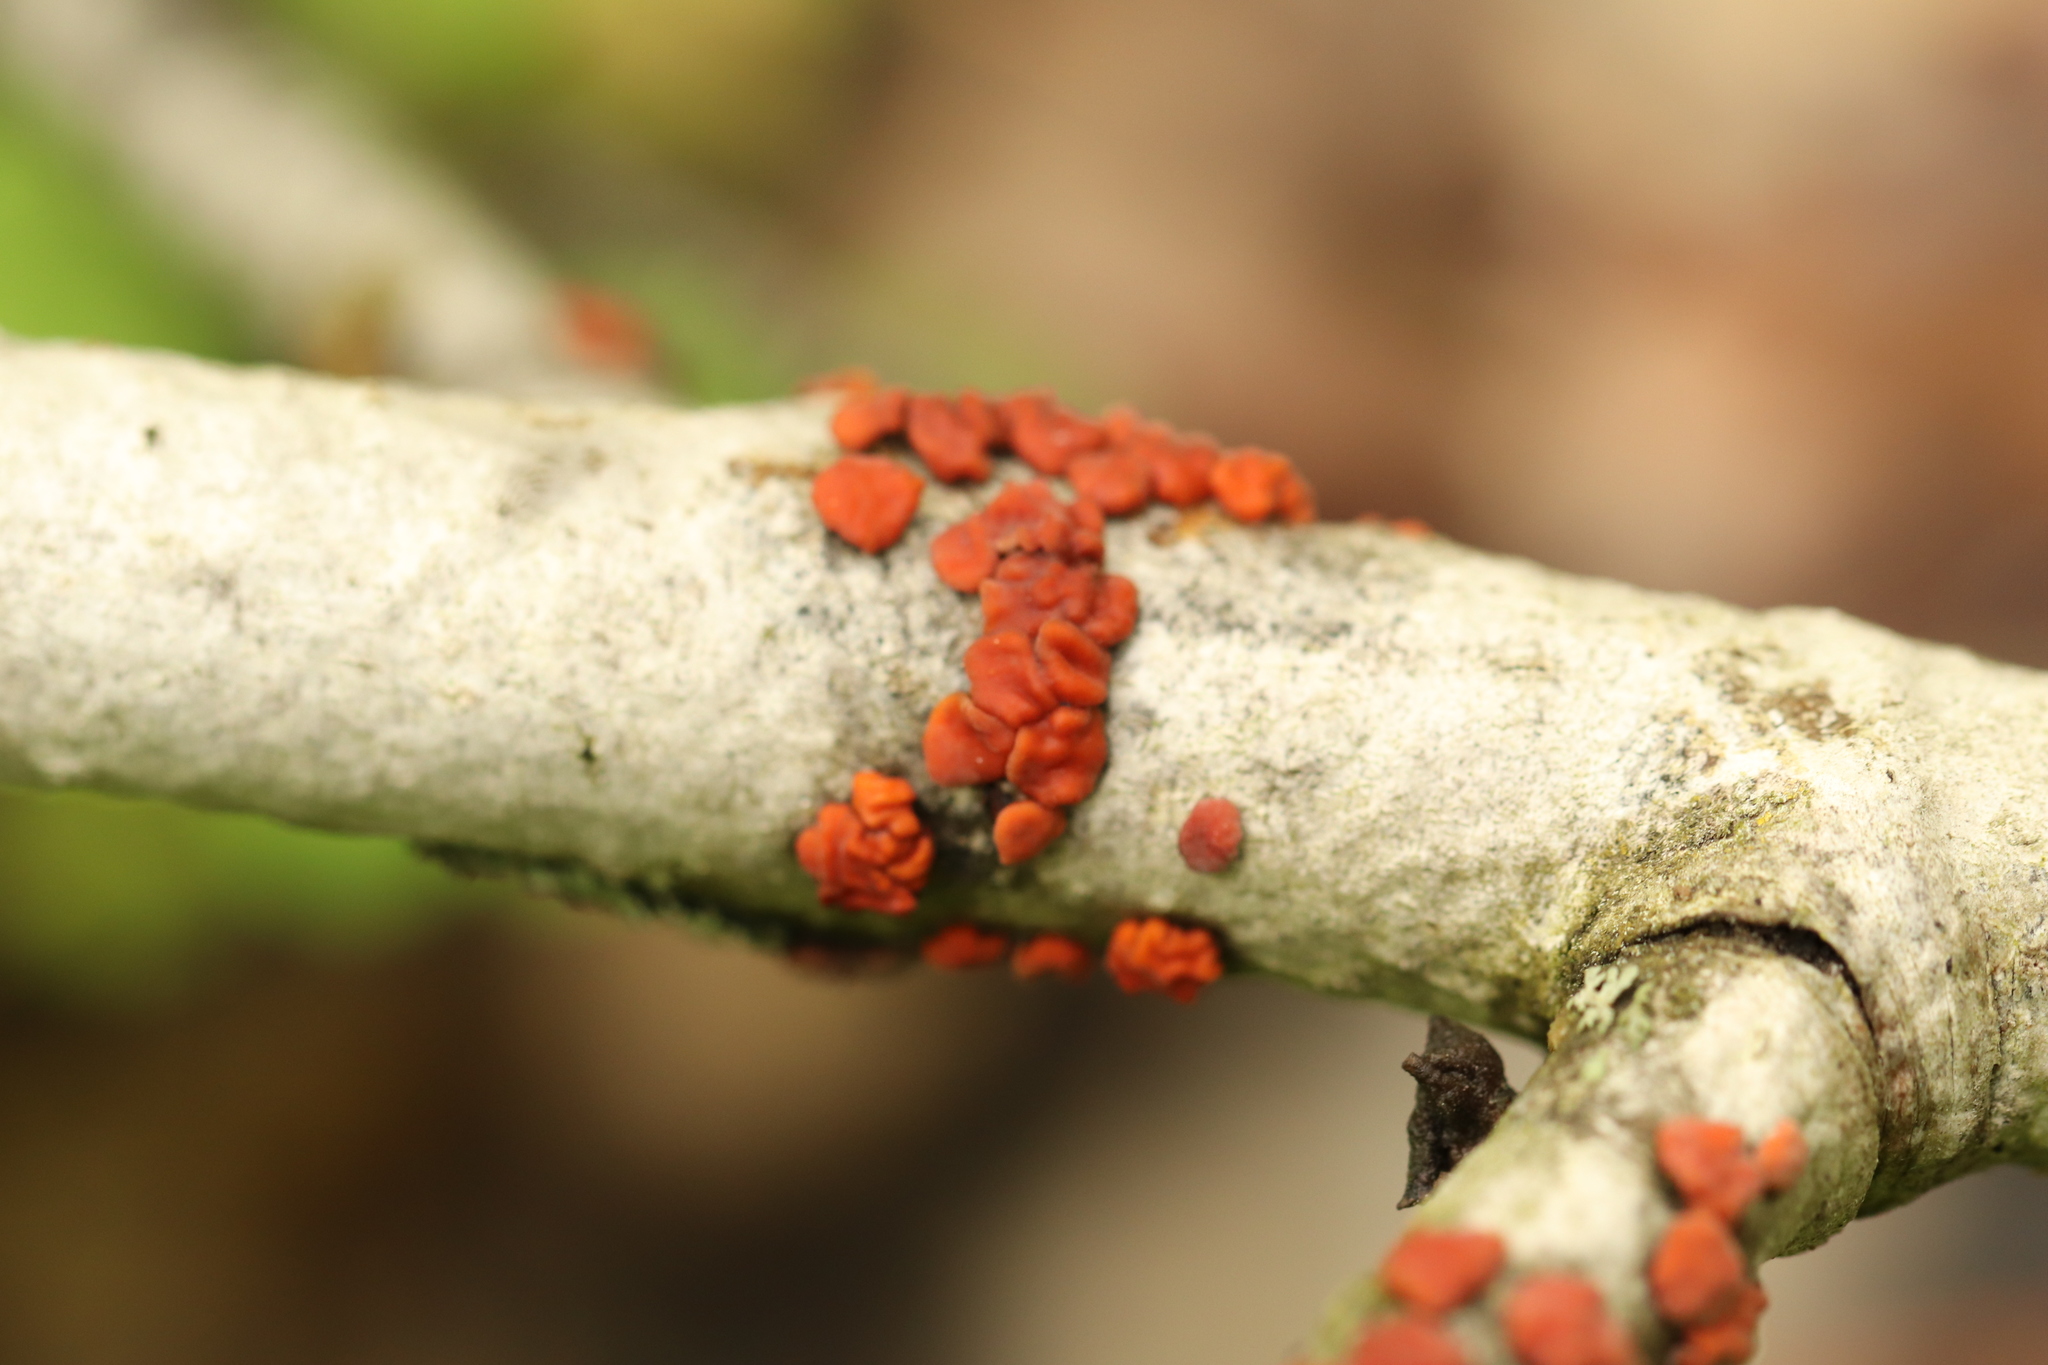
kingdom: Fungi
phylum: Basidiomycota
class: Agaricomycetes
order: Russulales
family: Peniophoraceae
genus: Peniophora
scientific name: Peniophora rufa
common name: Red tree brain fungus
